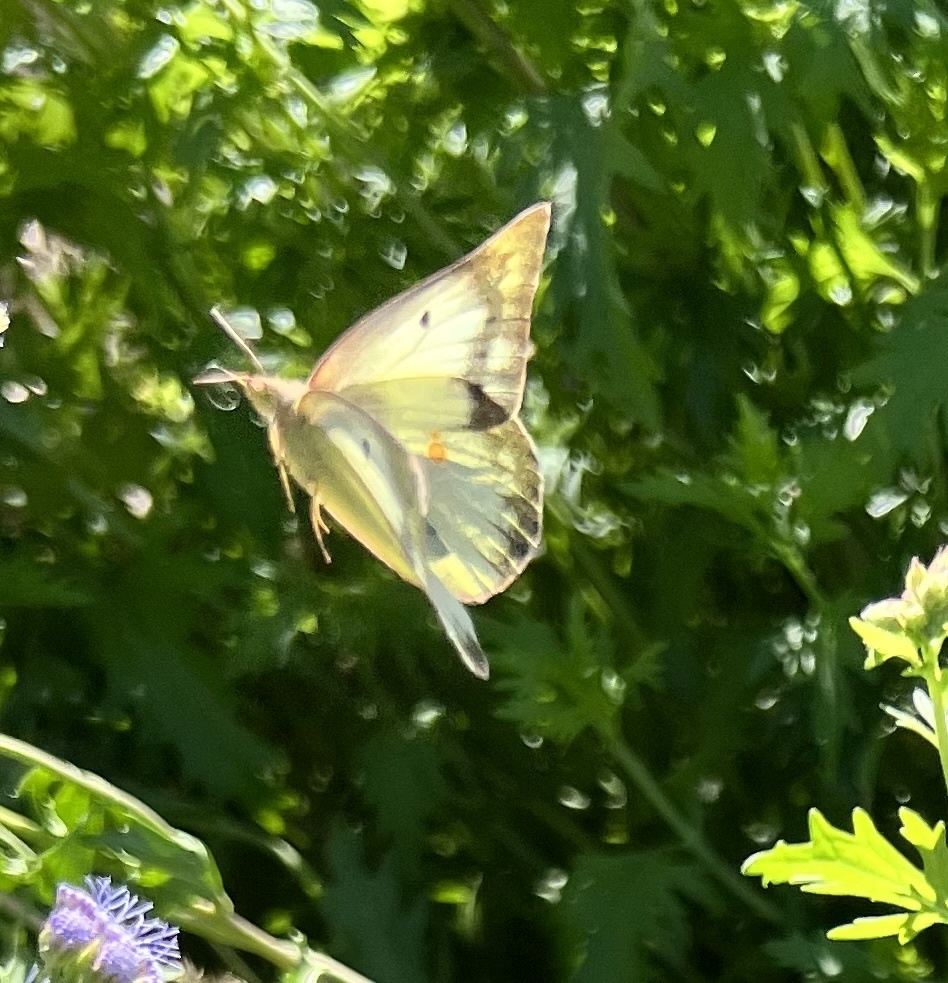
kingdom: Animalia
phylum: Arthropoda
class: Insecta
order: Lepidoptera
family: Pieridae
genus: Colias
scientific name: Colias eurytheme
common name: Alfalfa butterfly
